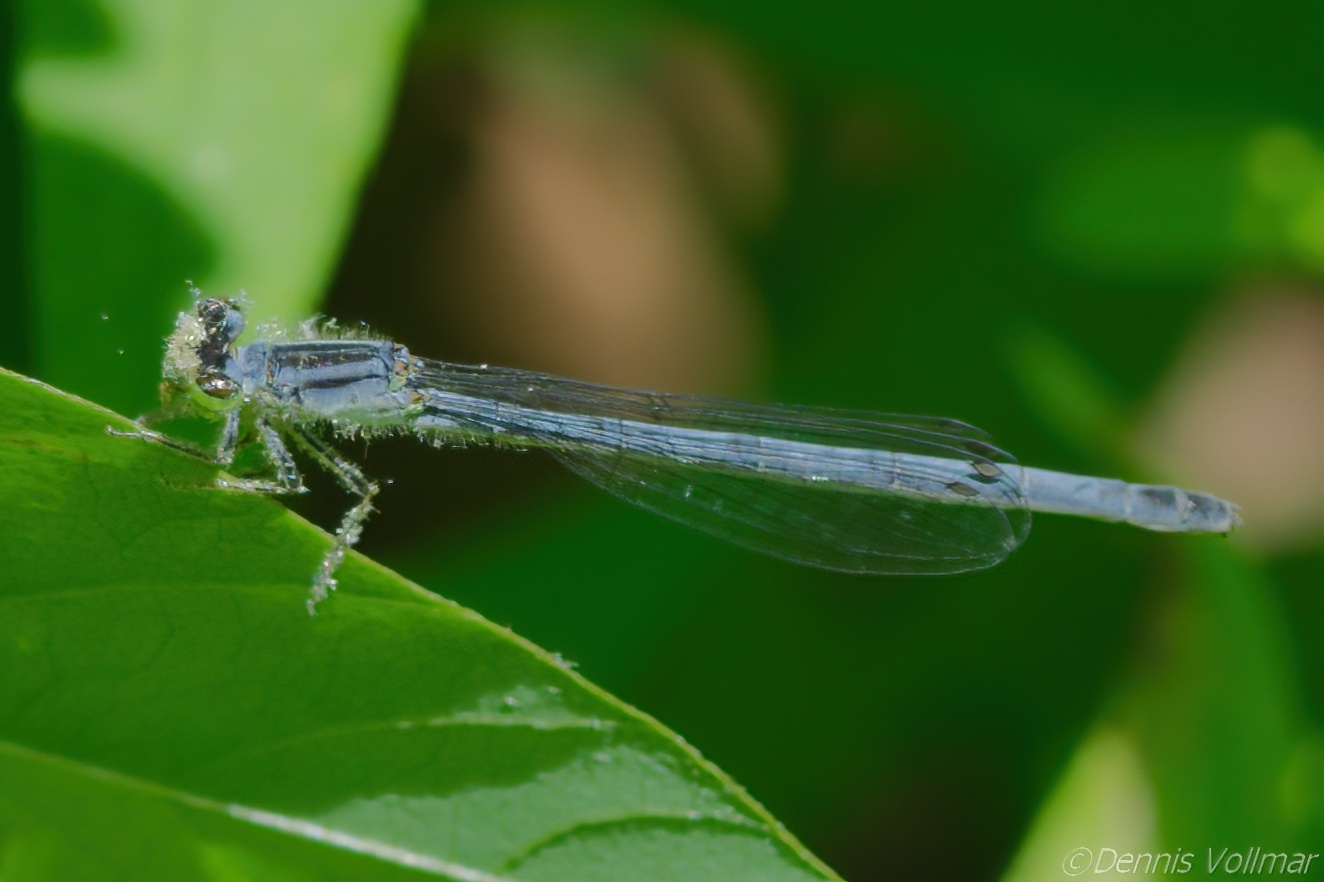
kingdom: Animalia
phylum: Arthropoda
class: Insecta
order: Odonata
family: Coenagrionidae
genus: Ischnura
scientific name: Ischnura verticalis
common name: Eastern forktail
